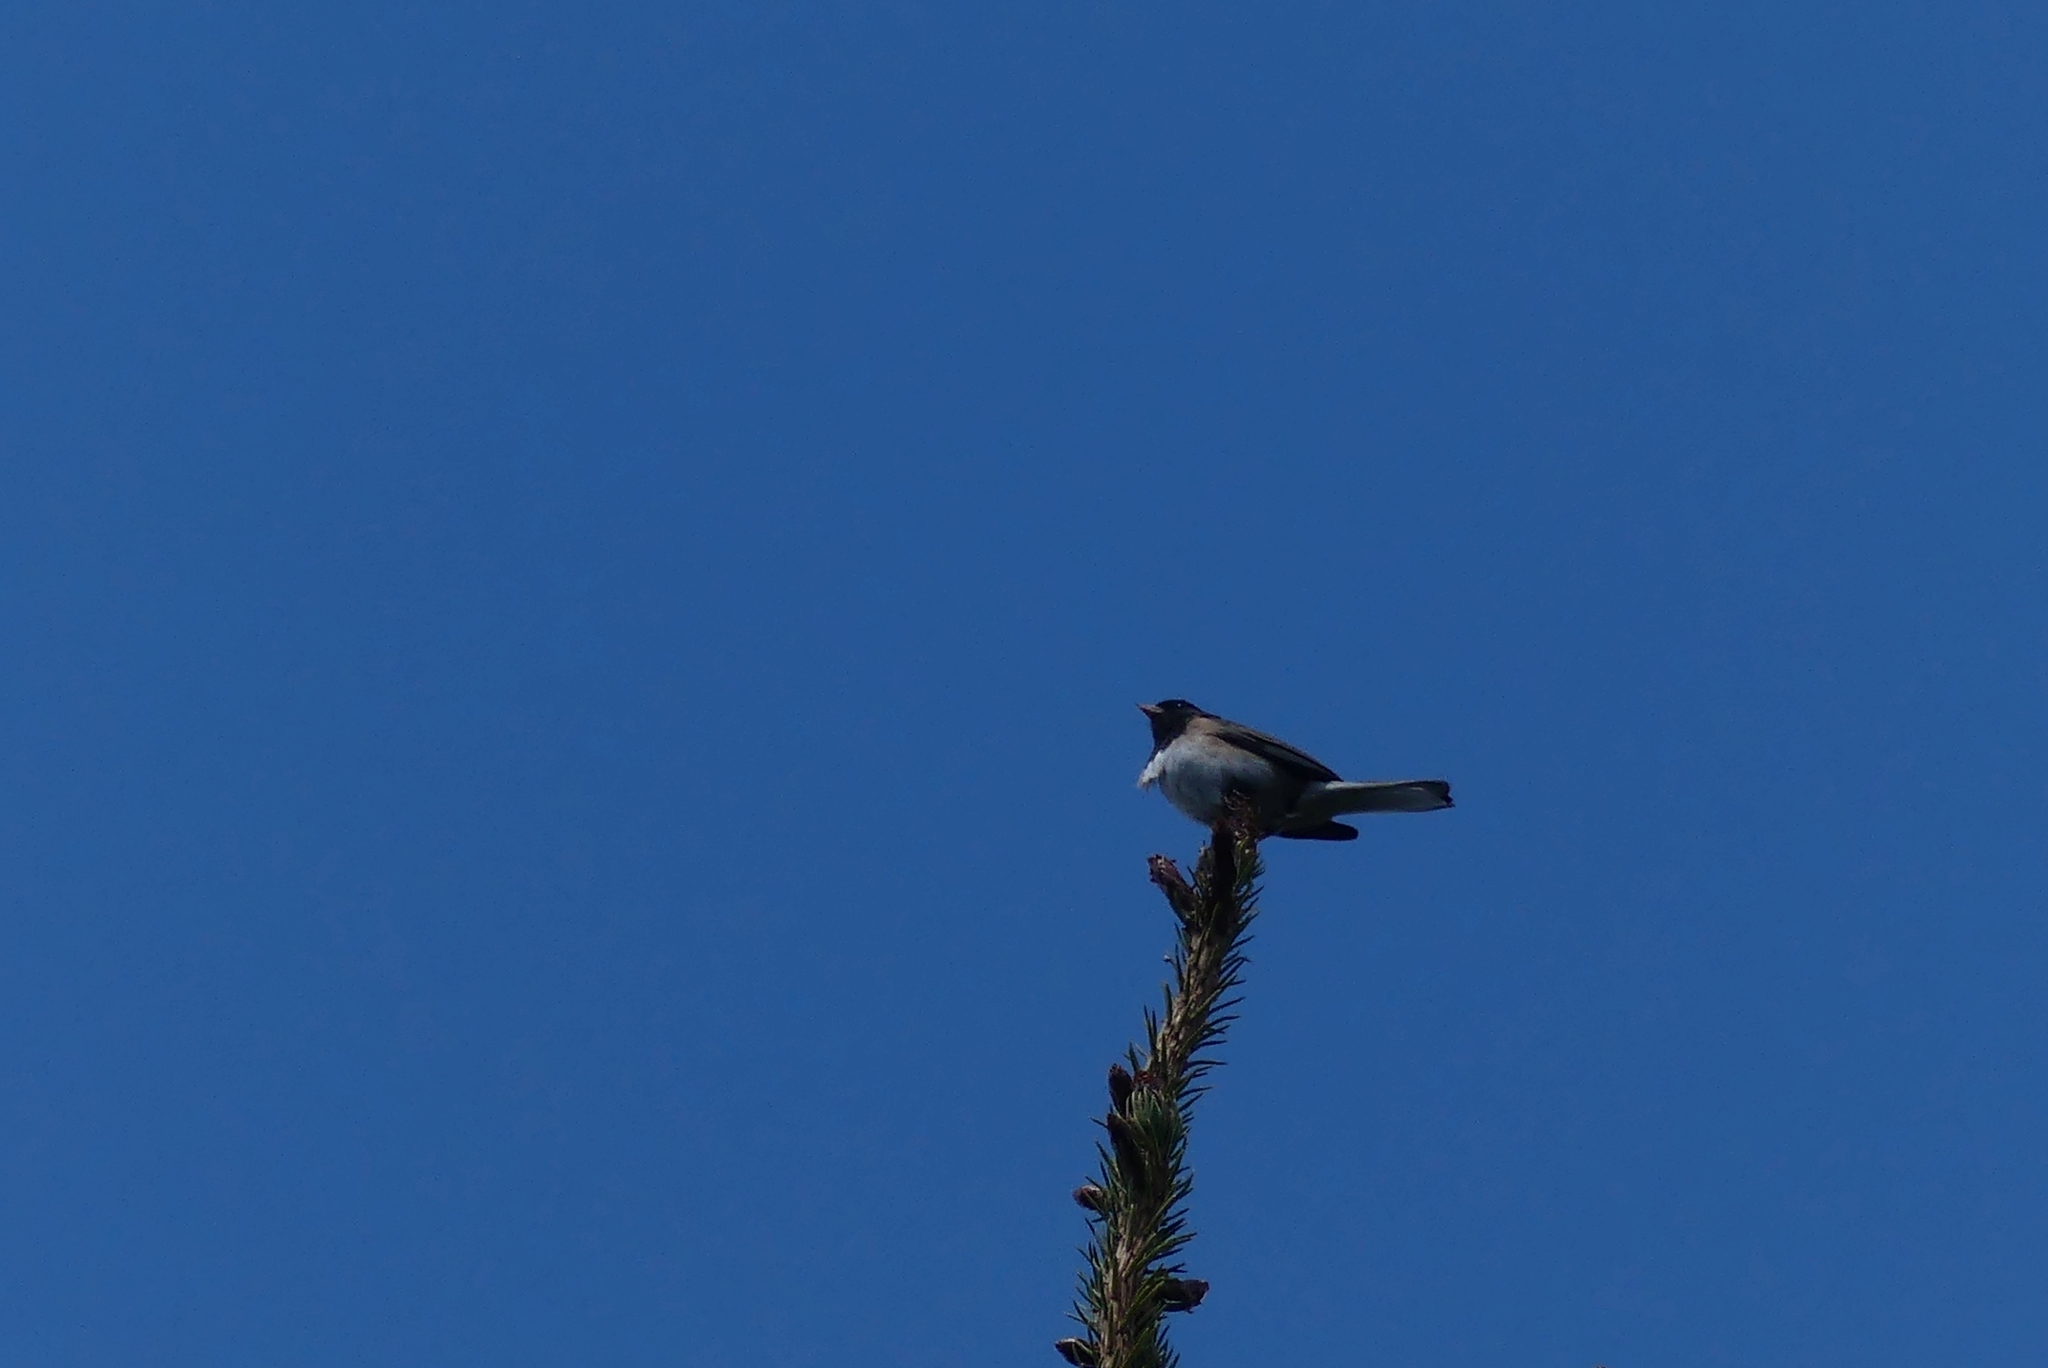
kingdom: Animalia
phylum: Chordata
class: Aves
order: Passeriformes
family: Passerellidae
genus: Junco
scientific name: Junco hyemalis
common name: Dark-eyed junco
